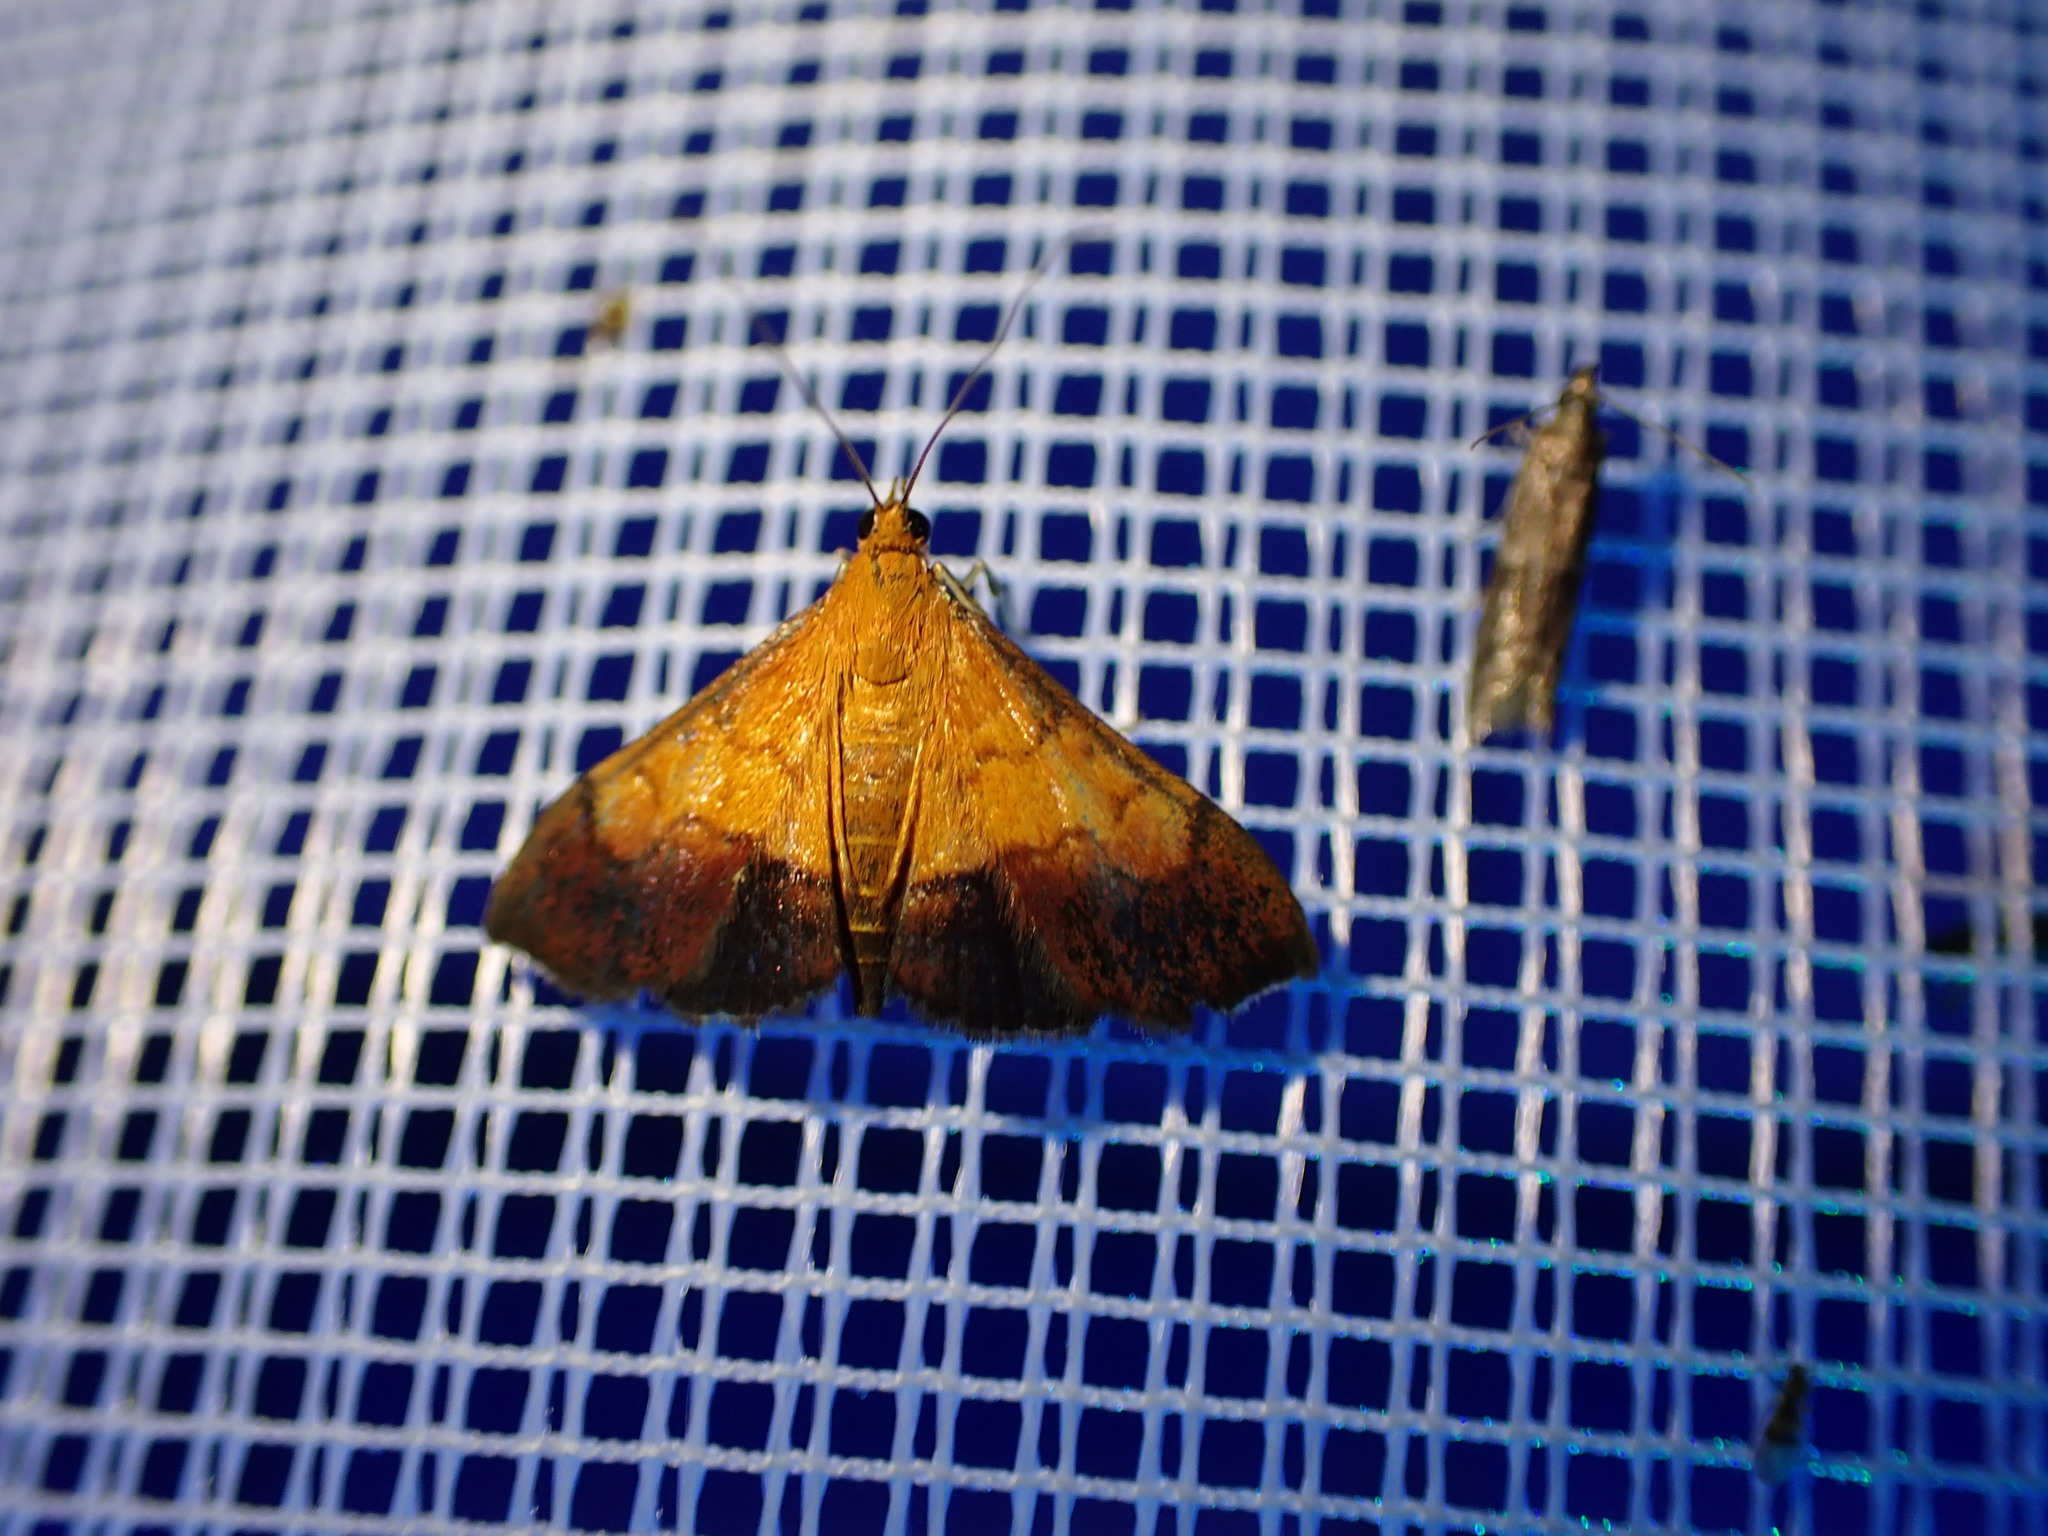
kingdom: Animalia
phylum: Arthropoda
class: Insecta
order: Lepidoptera
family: Crambidae
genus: Pyrausta
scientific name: Pyrausta bicoloralis
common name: Bicolored pyrausta moth
